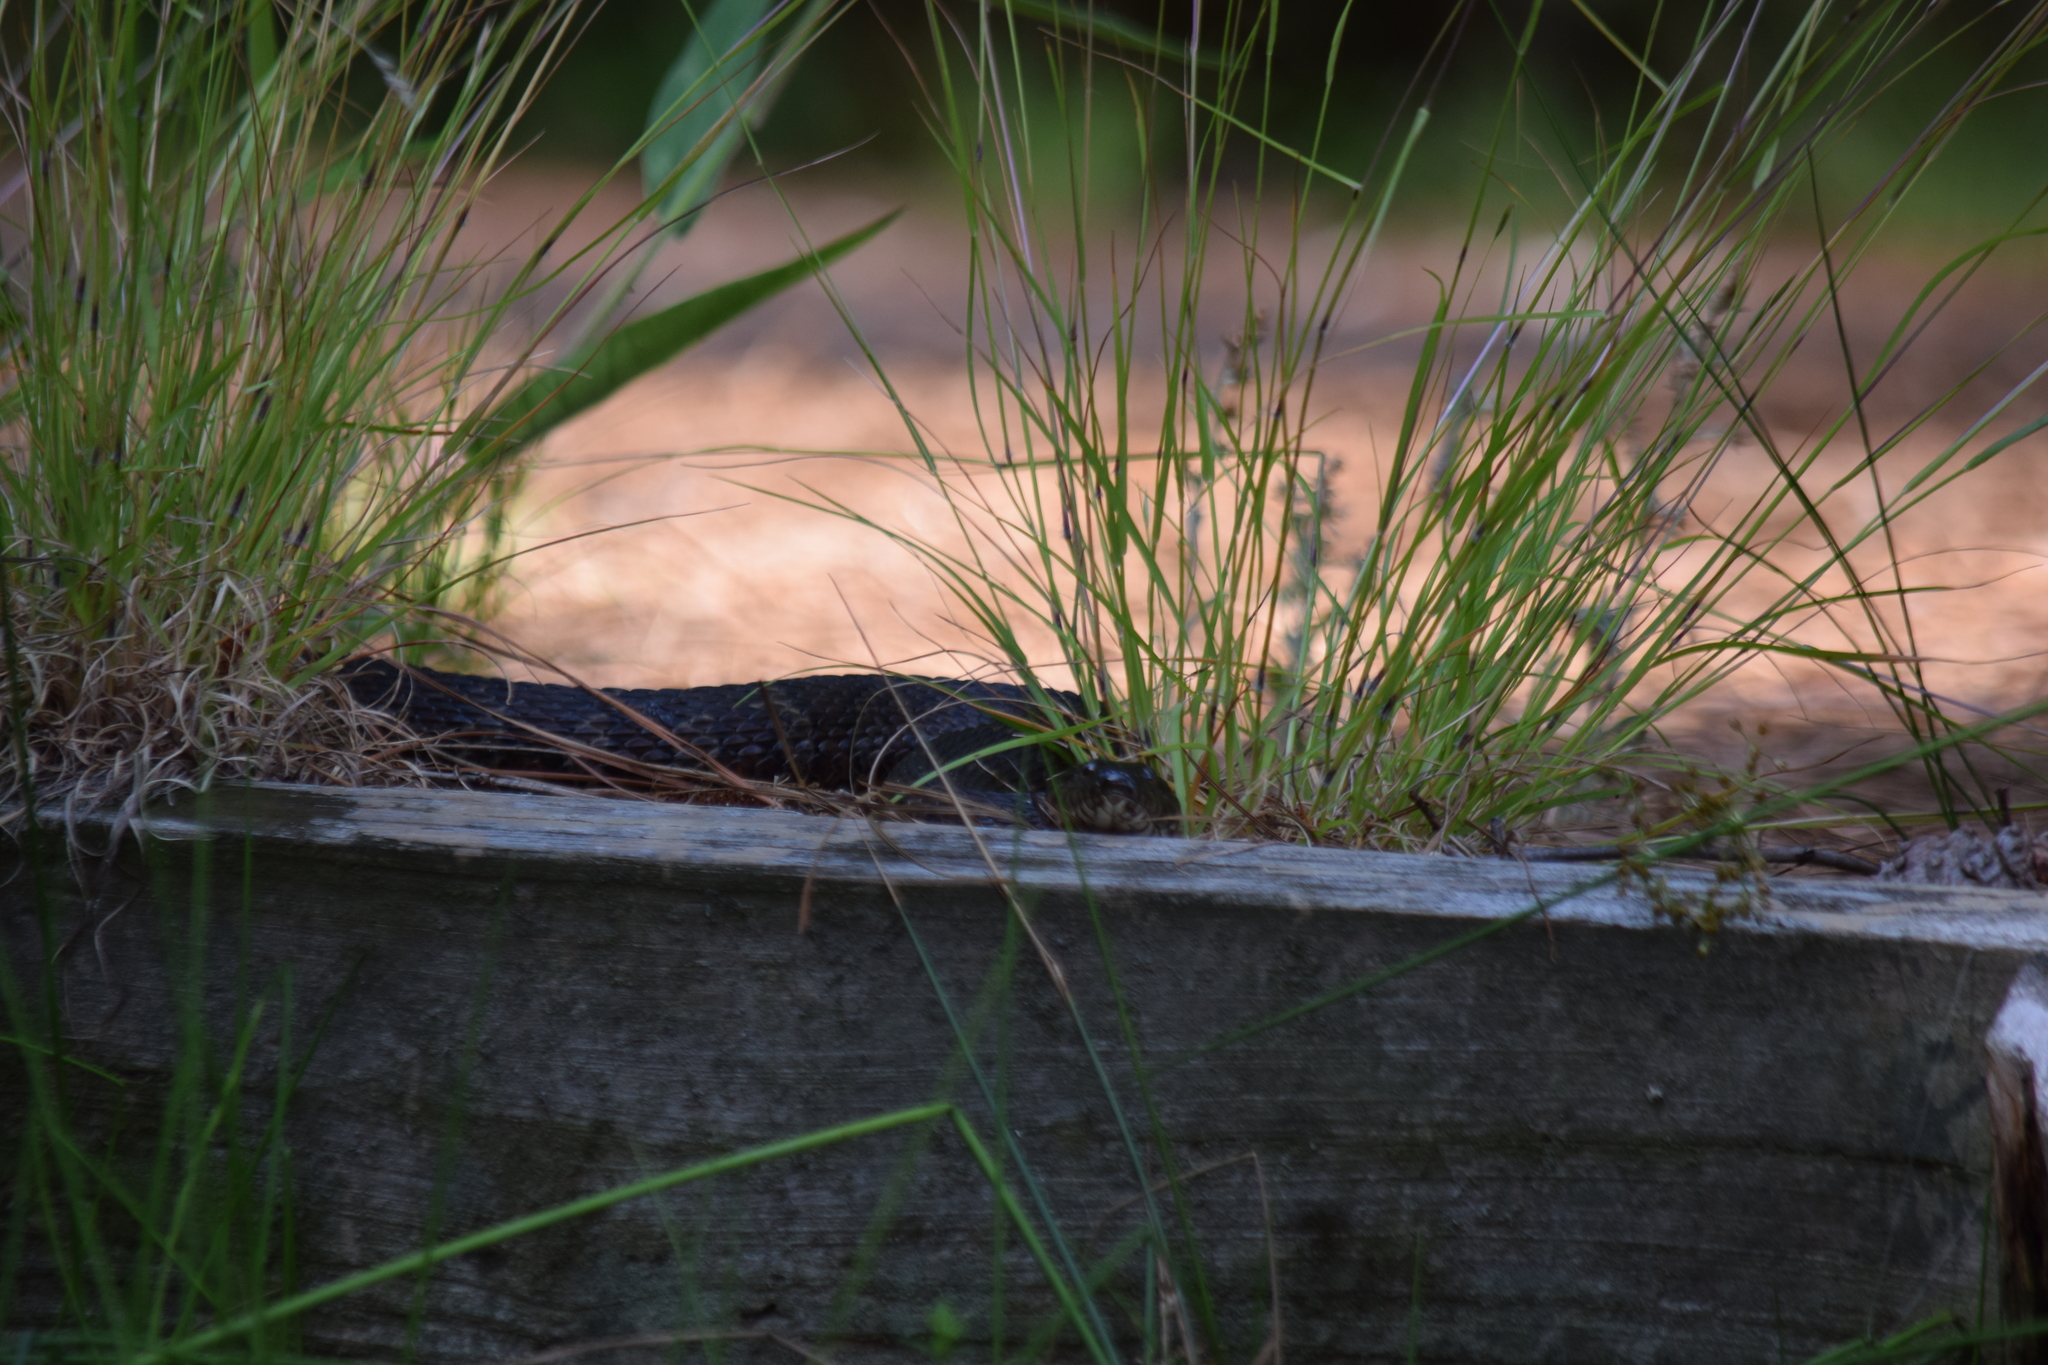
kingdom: Animalia
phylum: Chordata
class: Squamata
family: Colubridae
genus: Nerodia
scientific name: Nerodia sipedon
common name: Northern water snake
